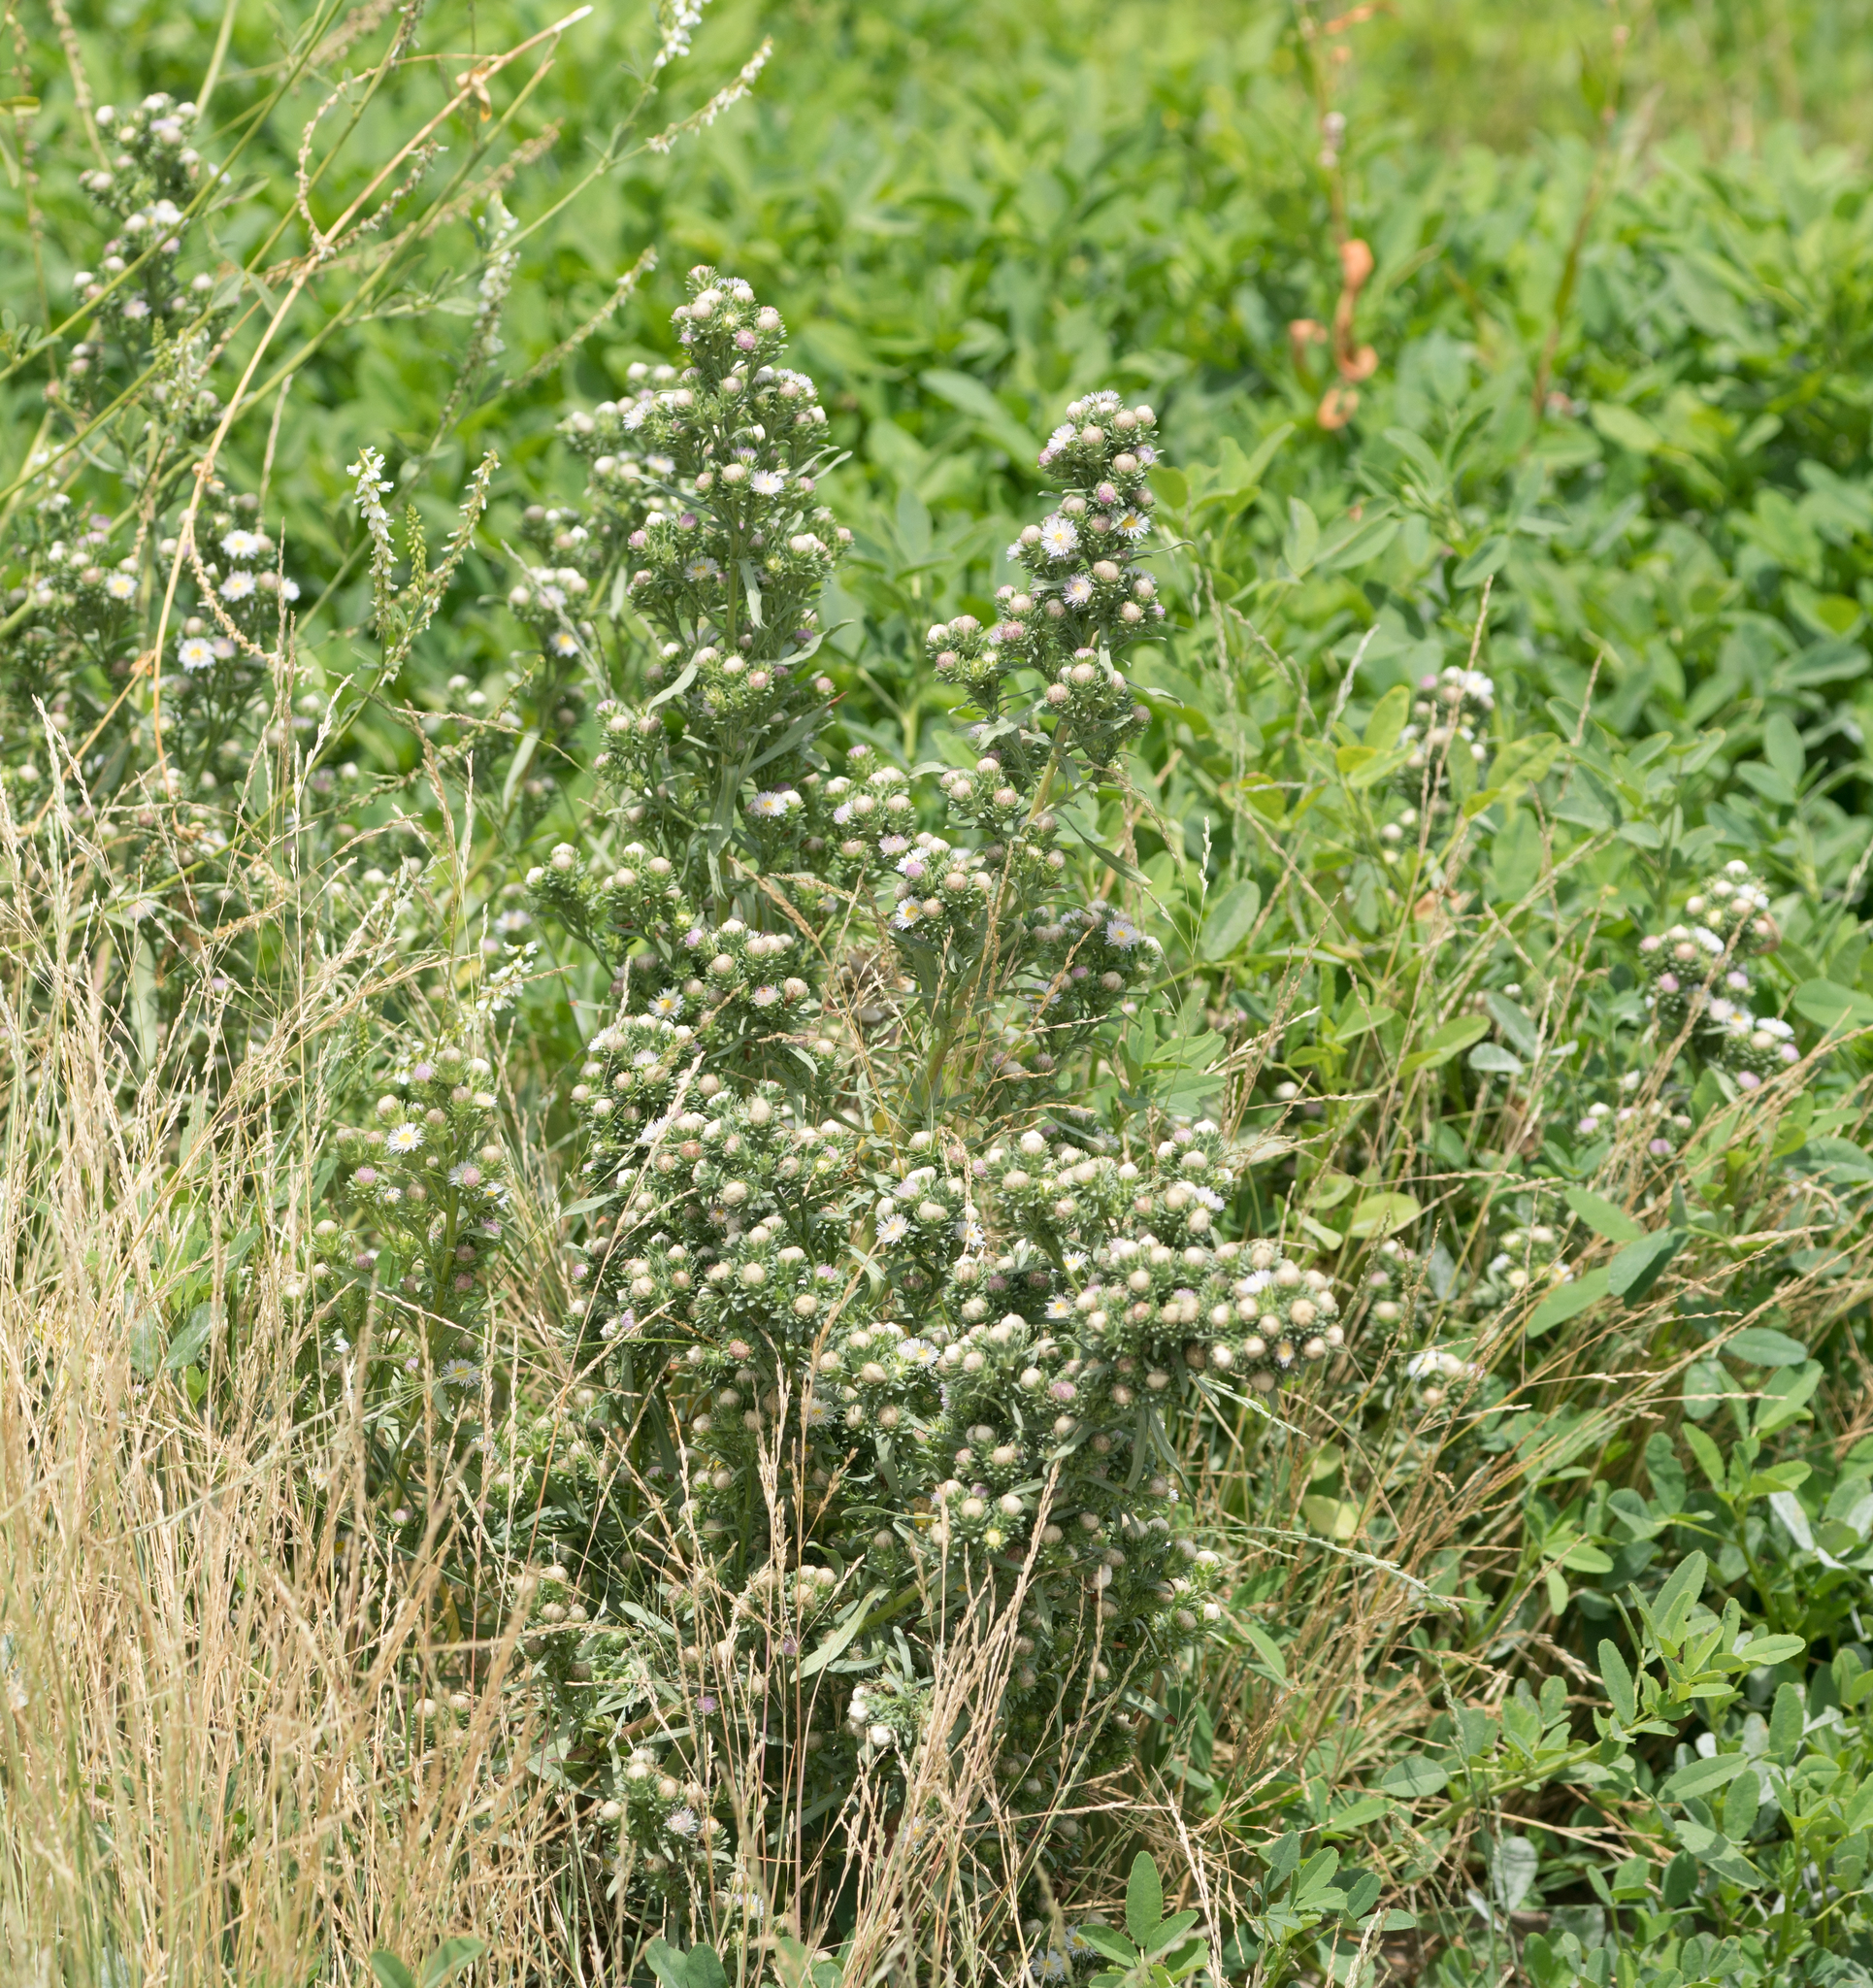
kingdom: Plantae
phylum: Tracheophyta
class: Magnoliopsida
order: Asterales
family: Asteraceae
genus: Symphyotrichum
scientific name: Symphyotrichum frondosum
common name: Leafy aster
